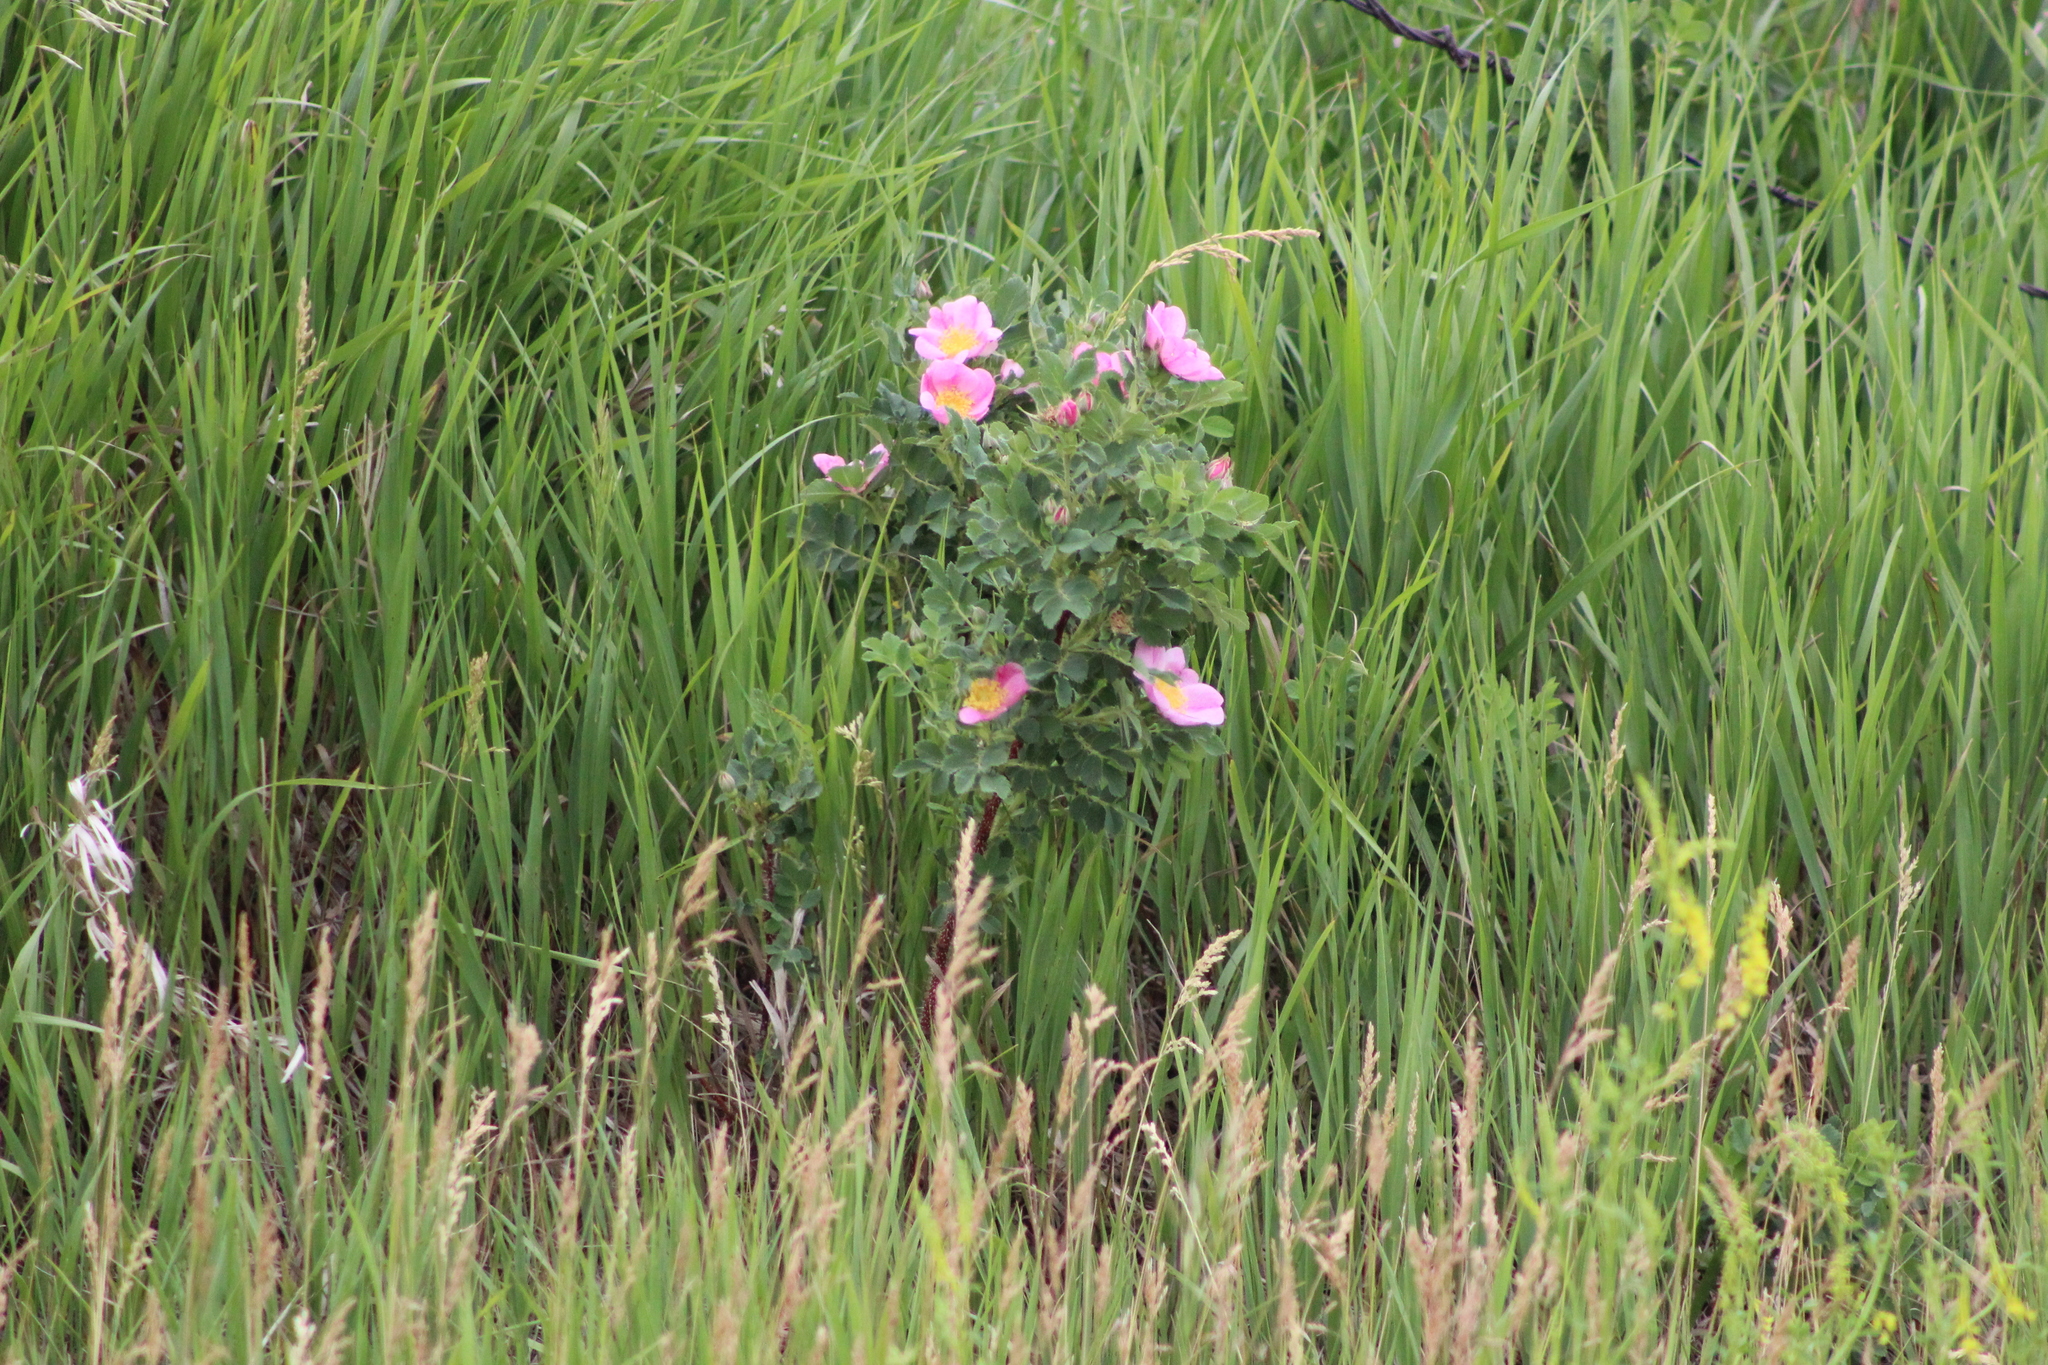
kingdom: Plantae
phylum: Tracheophyta
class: Magnoliopsida
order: Rosales
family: Rosaceae
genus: Rosa
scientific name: Rosa arkansana
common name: Prairie rose
